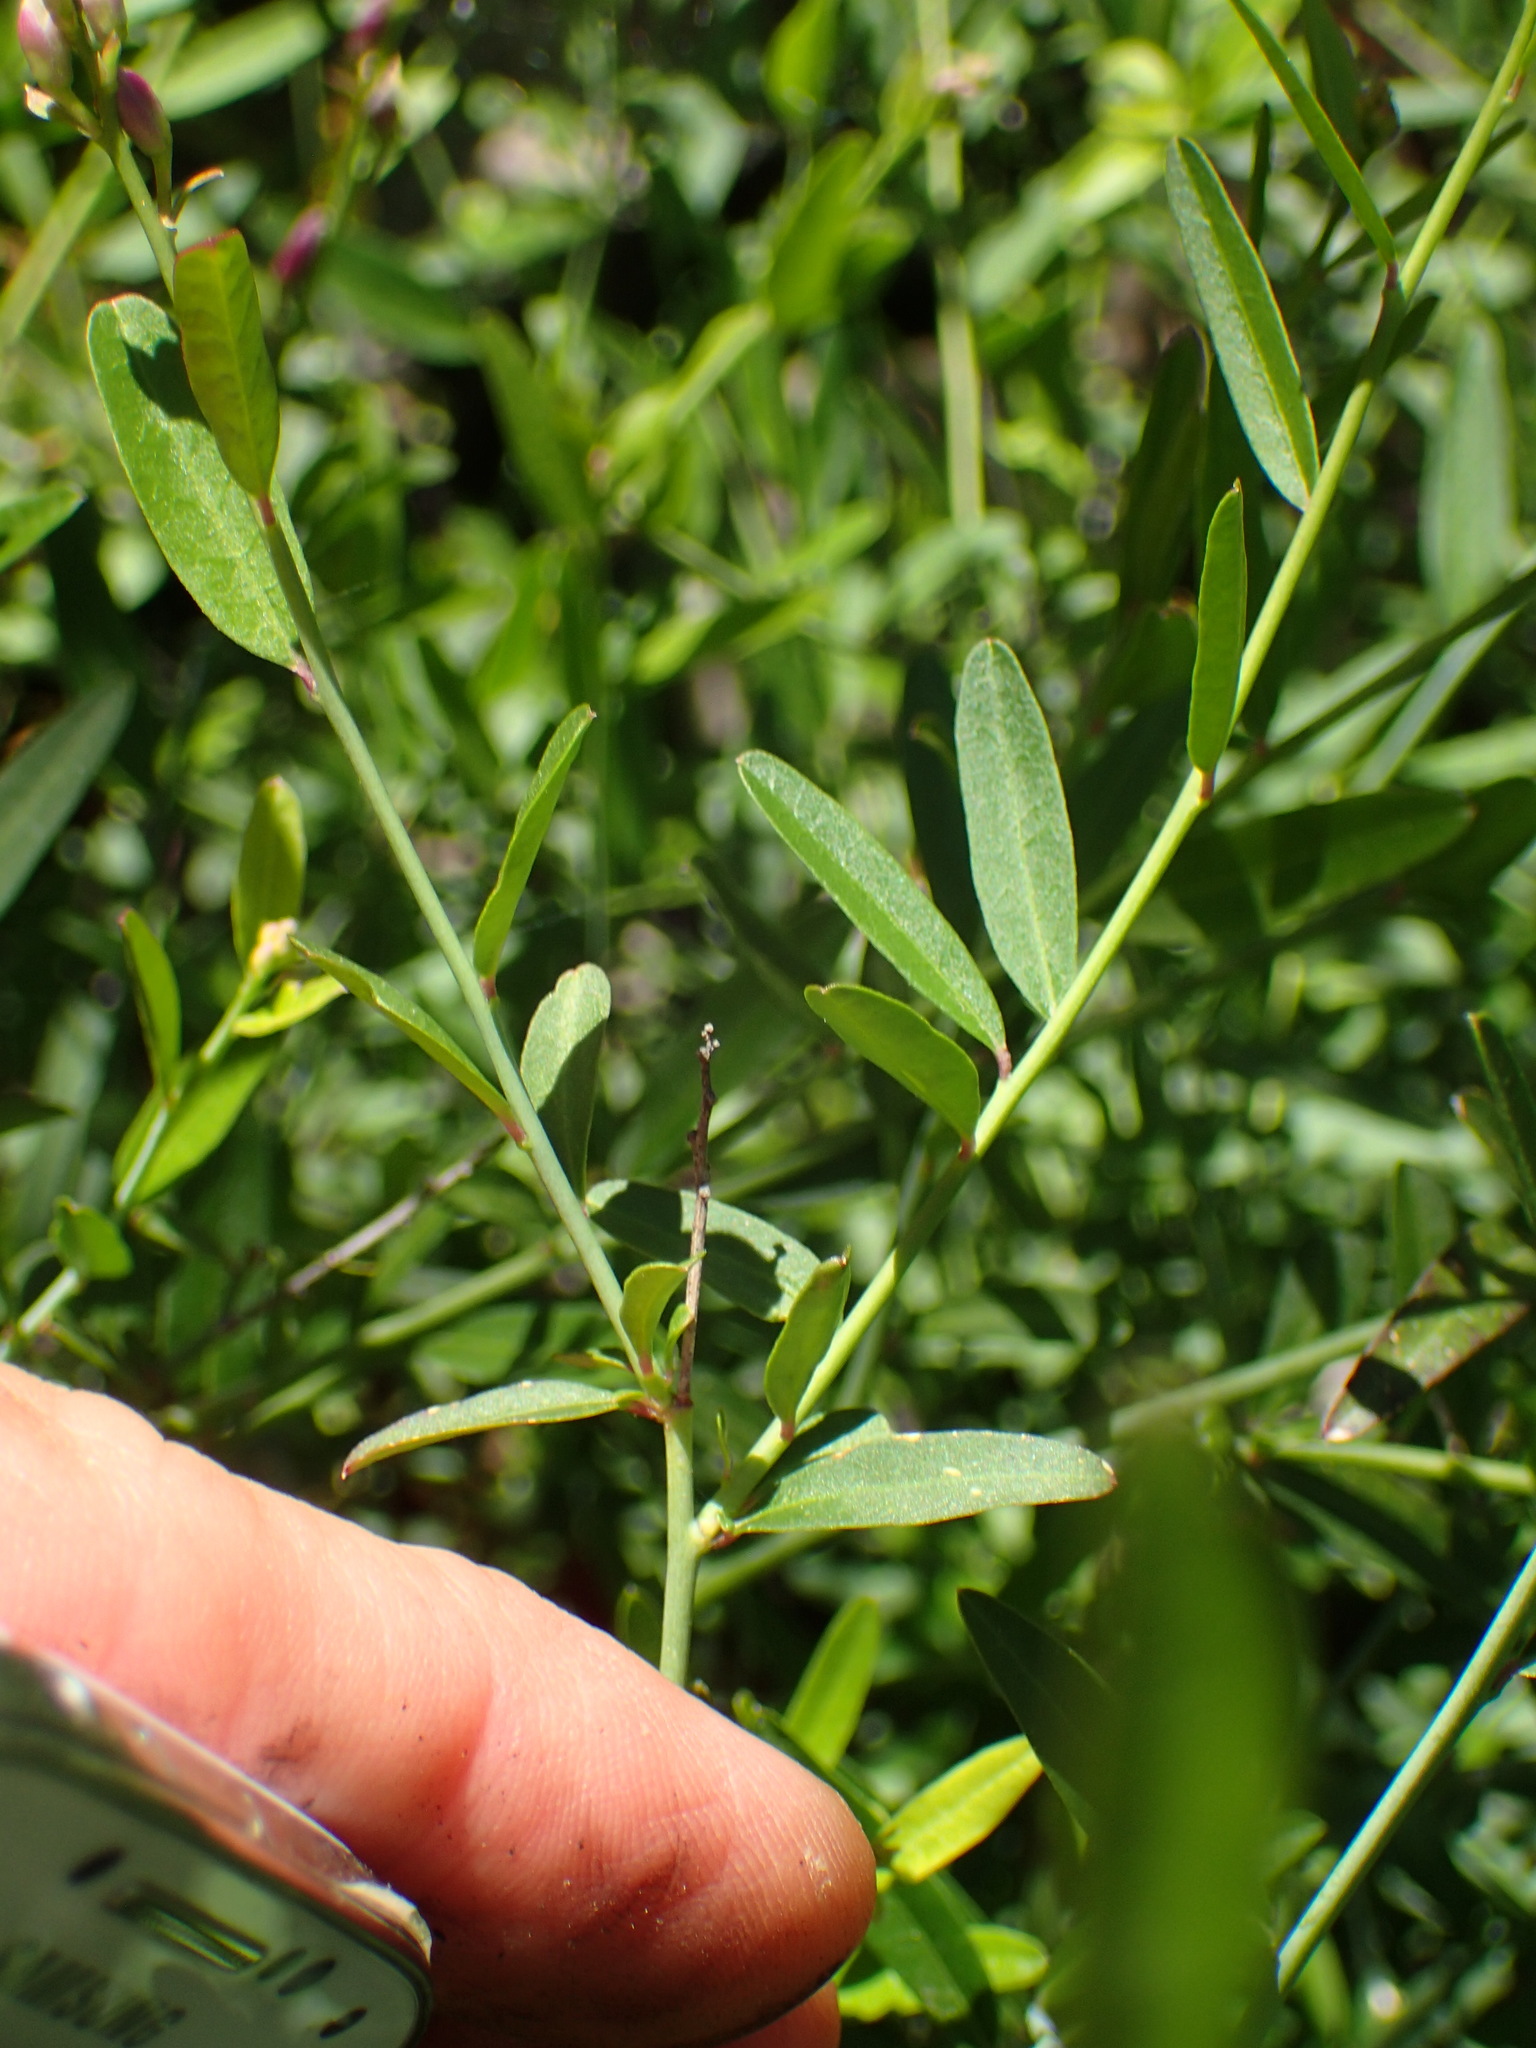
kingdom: Plantae
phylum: Tracheophyta
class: Magnoliopsida
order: Fabales
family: Polygalaceae
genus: Rhinotropis
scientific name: Rhinotropis cornuta
